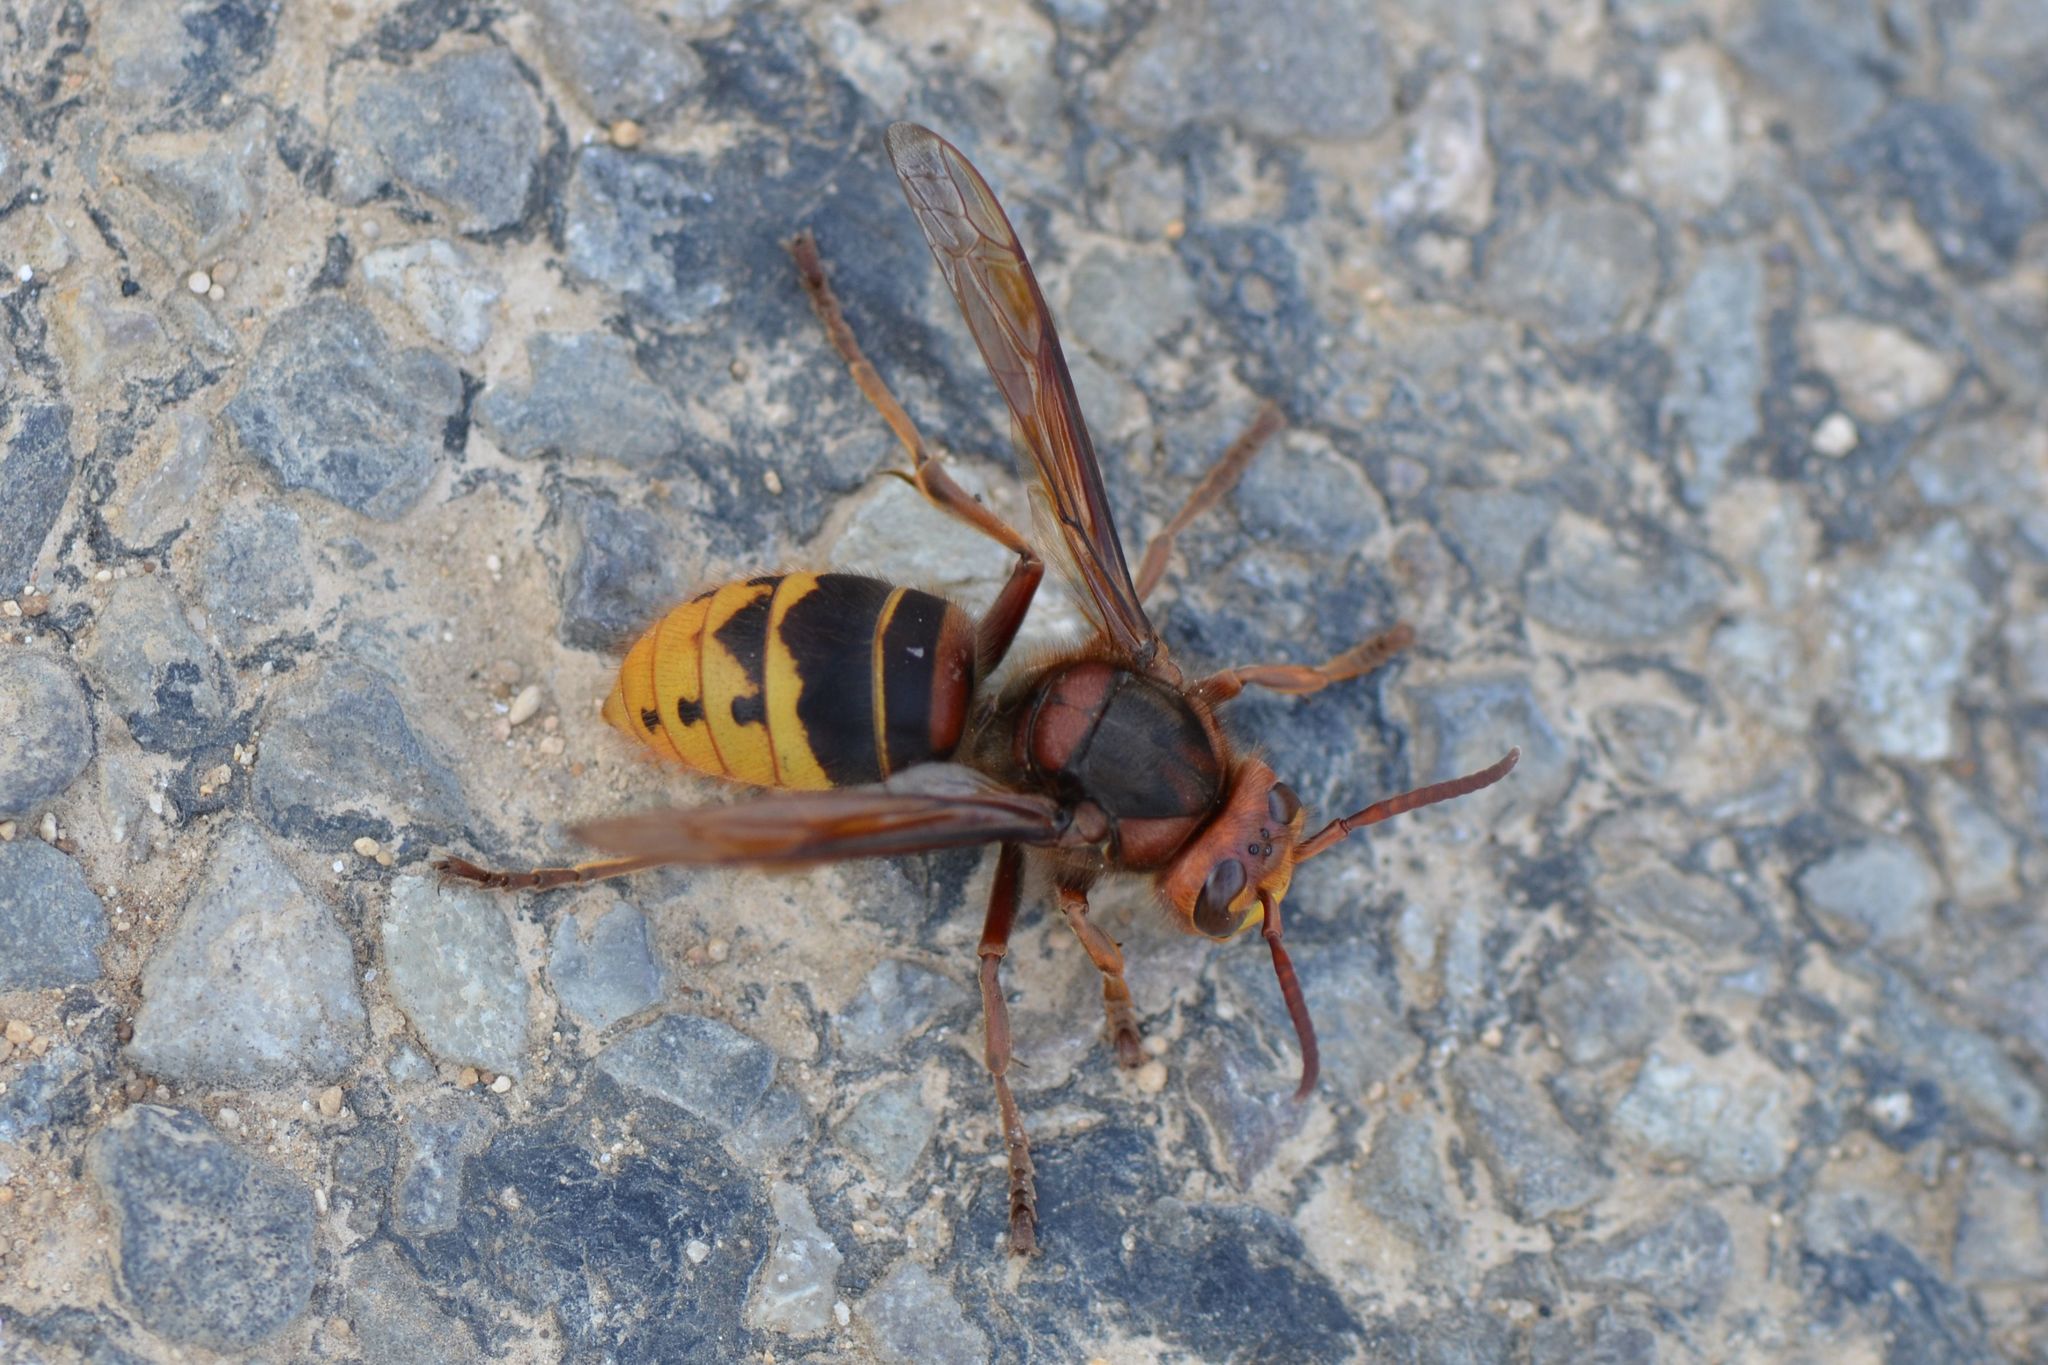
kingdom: Animalia
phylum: Arthropoda
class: Insecta
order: Hymenoptera
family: Vespidae
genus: Vespa
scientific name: Vespa crabro
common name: Hornet
